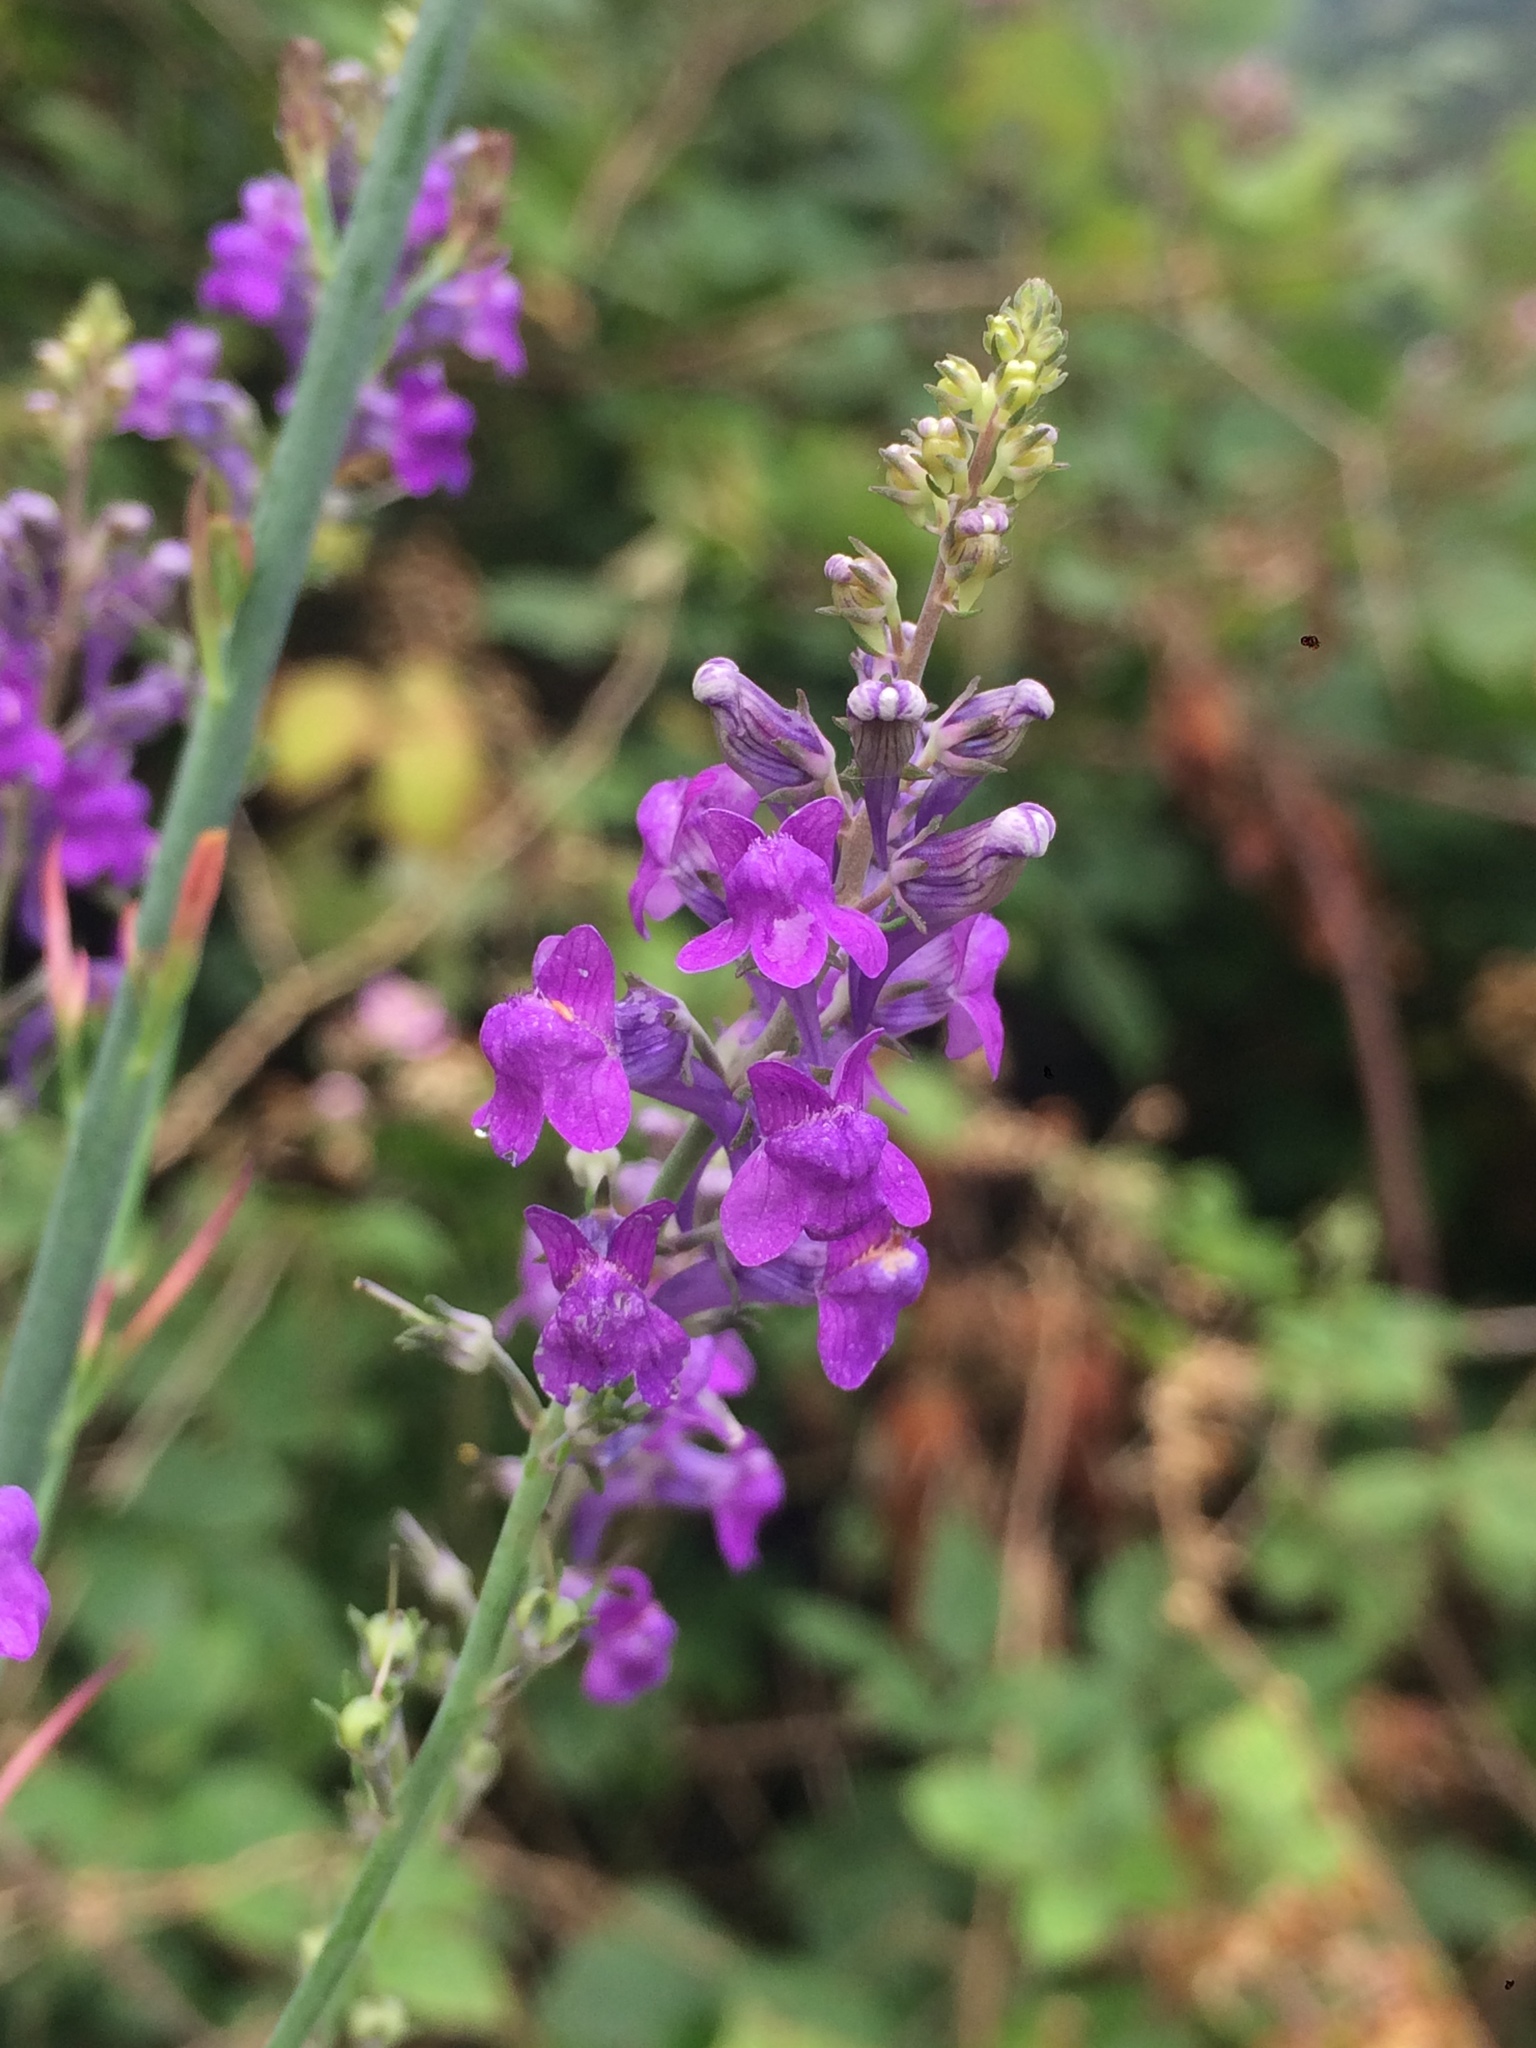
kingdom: Plantae
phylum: Tracheophyta
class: Magnoliopsida
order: Lamiales
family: Plantaginaceae
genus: Linaria
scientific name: Linaria purpurea
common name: Purple toadflax
